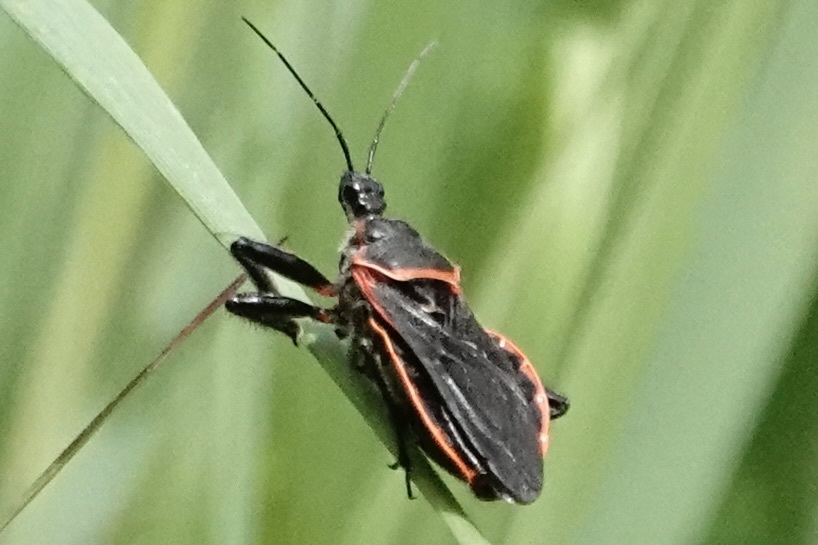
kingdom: Animalia
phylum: Arthropoda
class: Insecta
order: Hemiptera
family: Reduviidae
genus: Apiomerus
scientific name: Apiomerus crassipes
